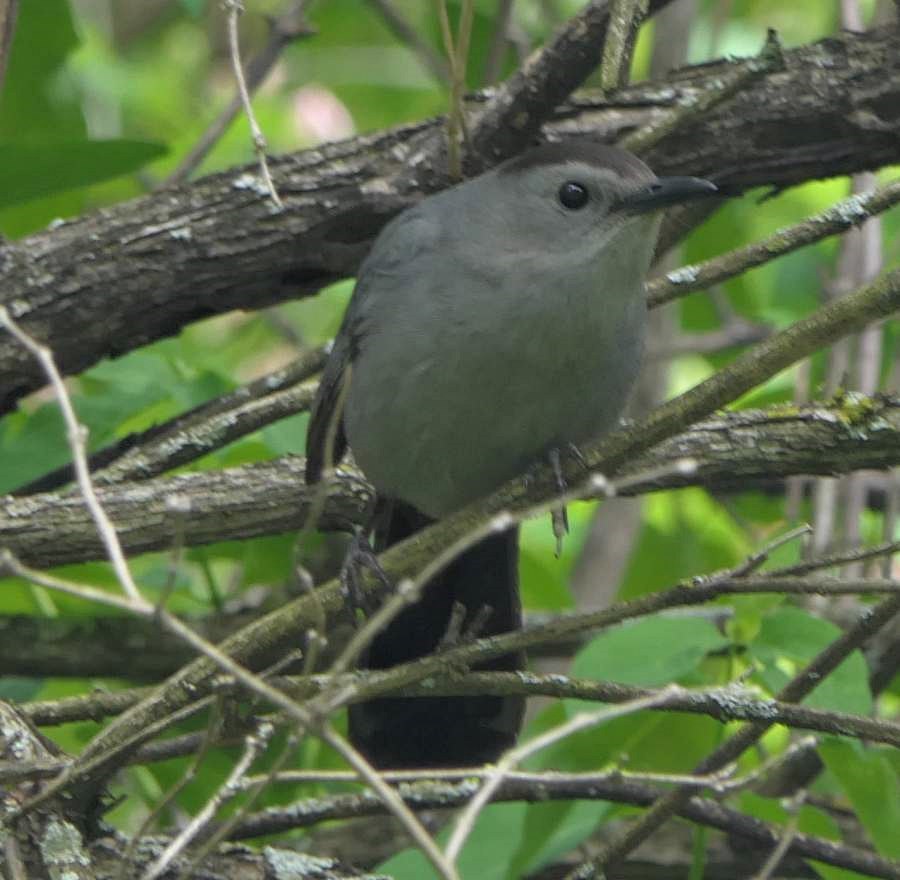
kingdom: Animalia
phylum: Chordata
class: Aves
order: Passeriformes
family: Mimidae
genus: Dumetella
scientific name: Dumetella carolinensis
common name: Gray catbird
